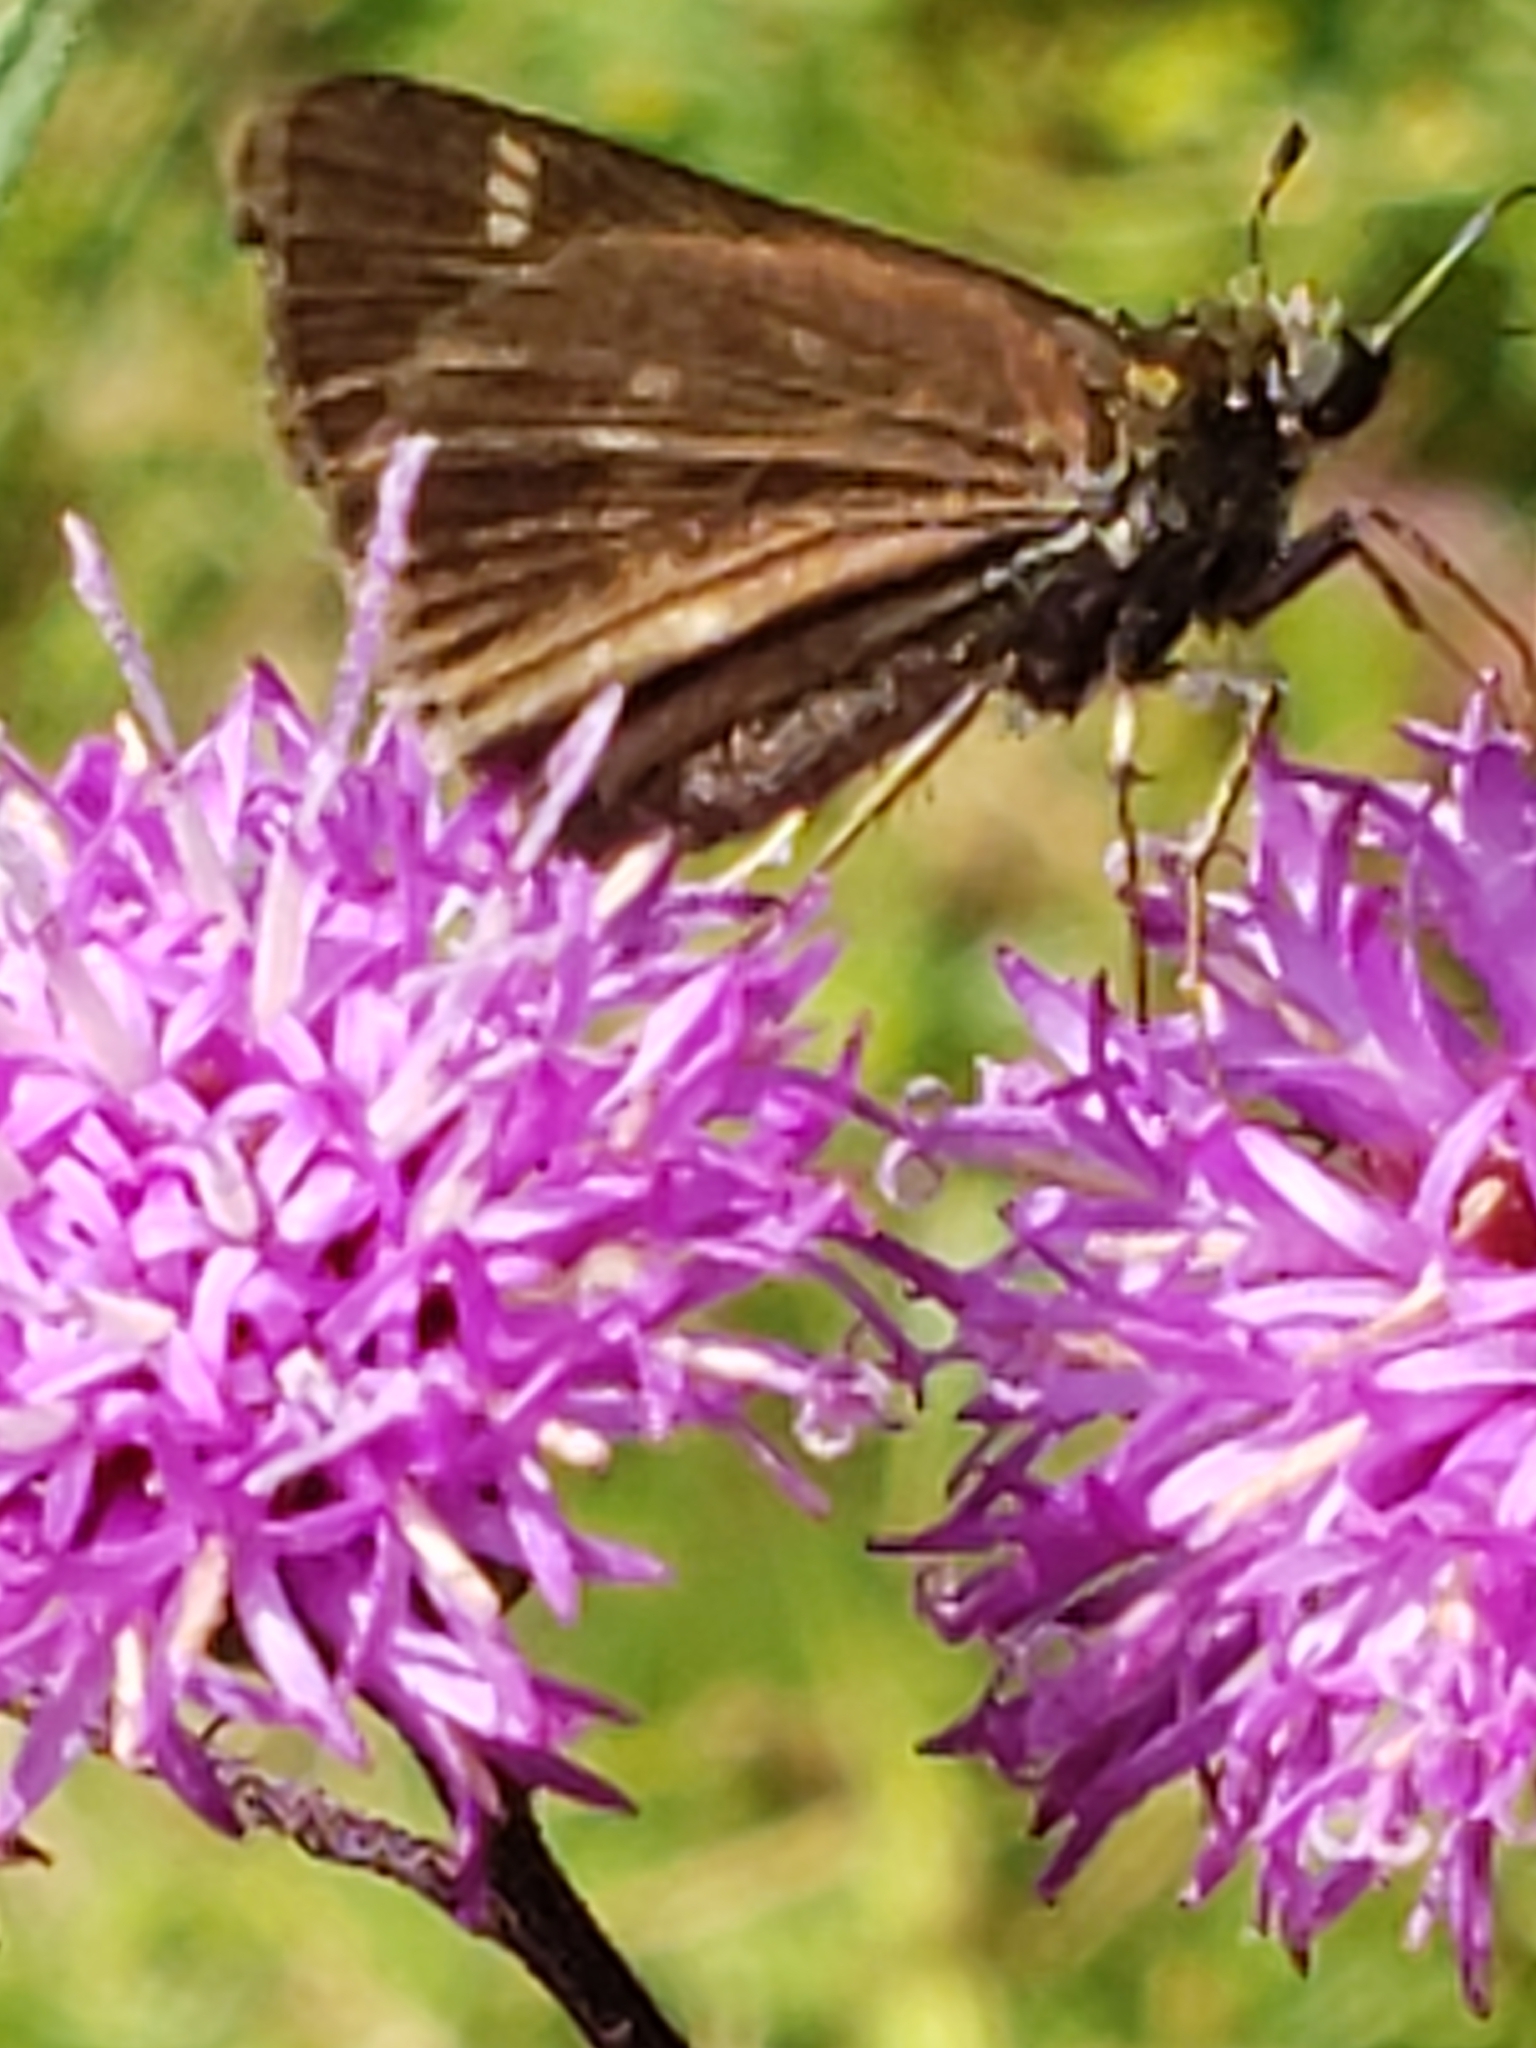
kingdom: Animalia
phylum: Arthropoda
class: Insecta
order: Lepidoptera
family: Hesperiidae
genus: Vernia
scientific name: Vernia verna
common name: Little glassywing
